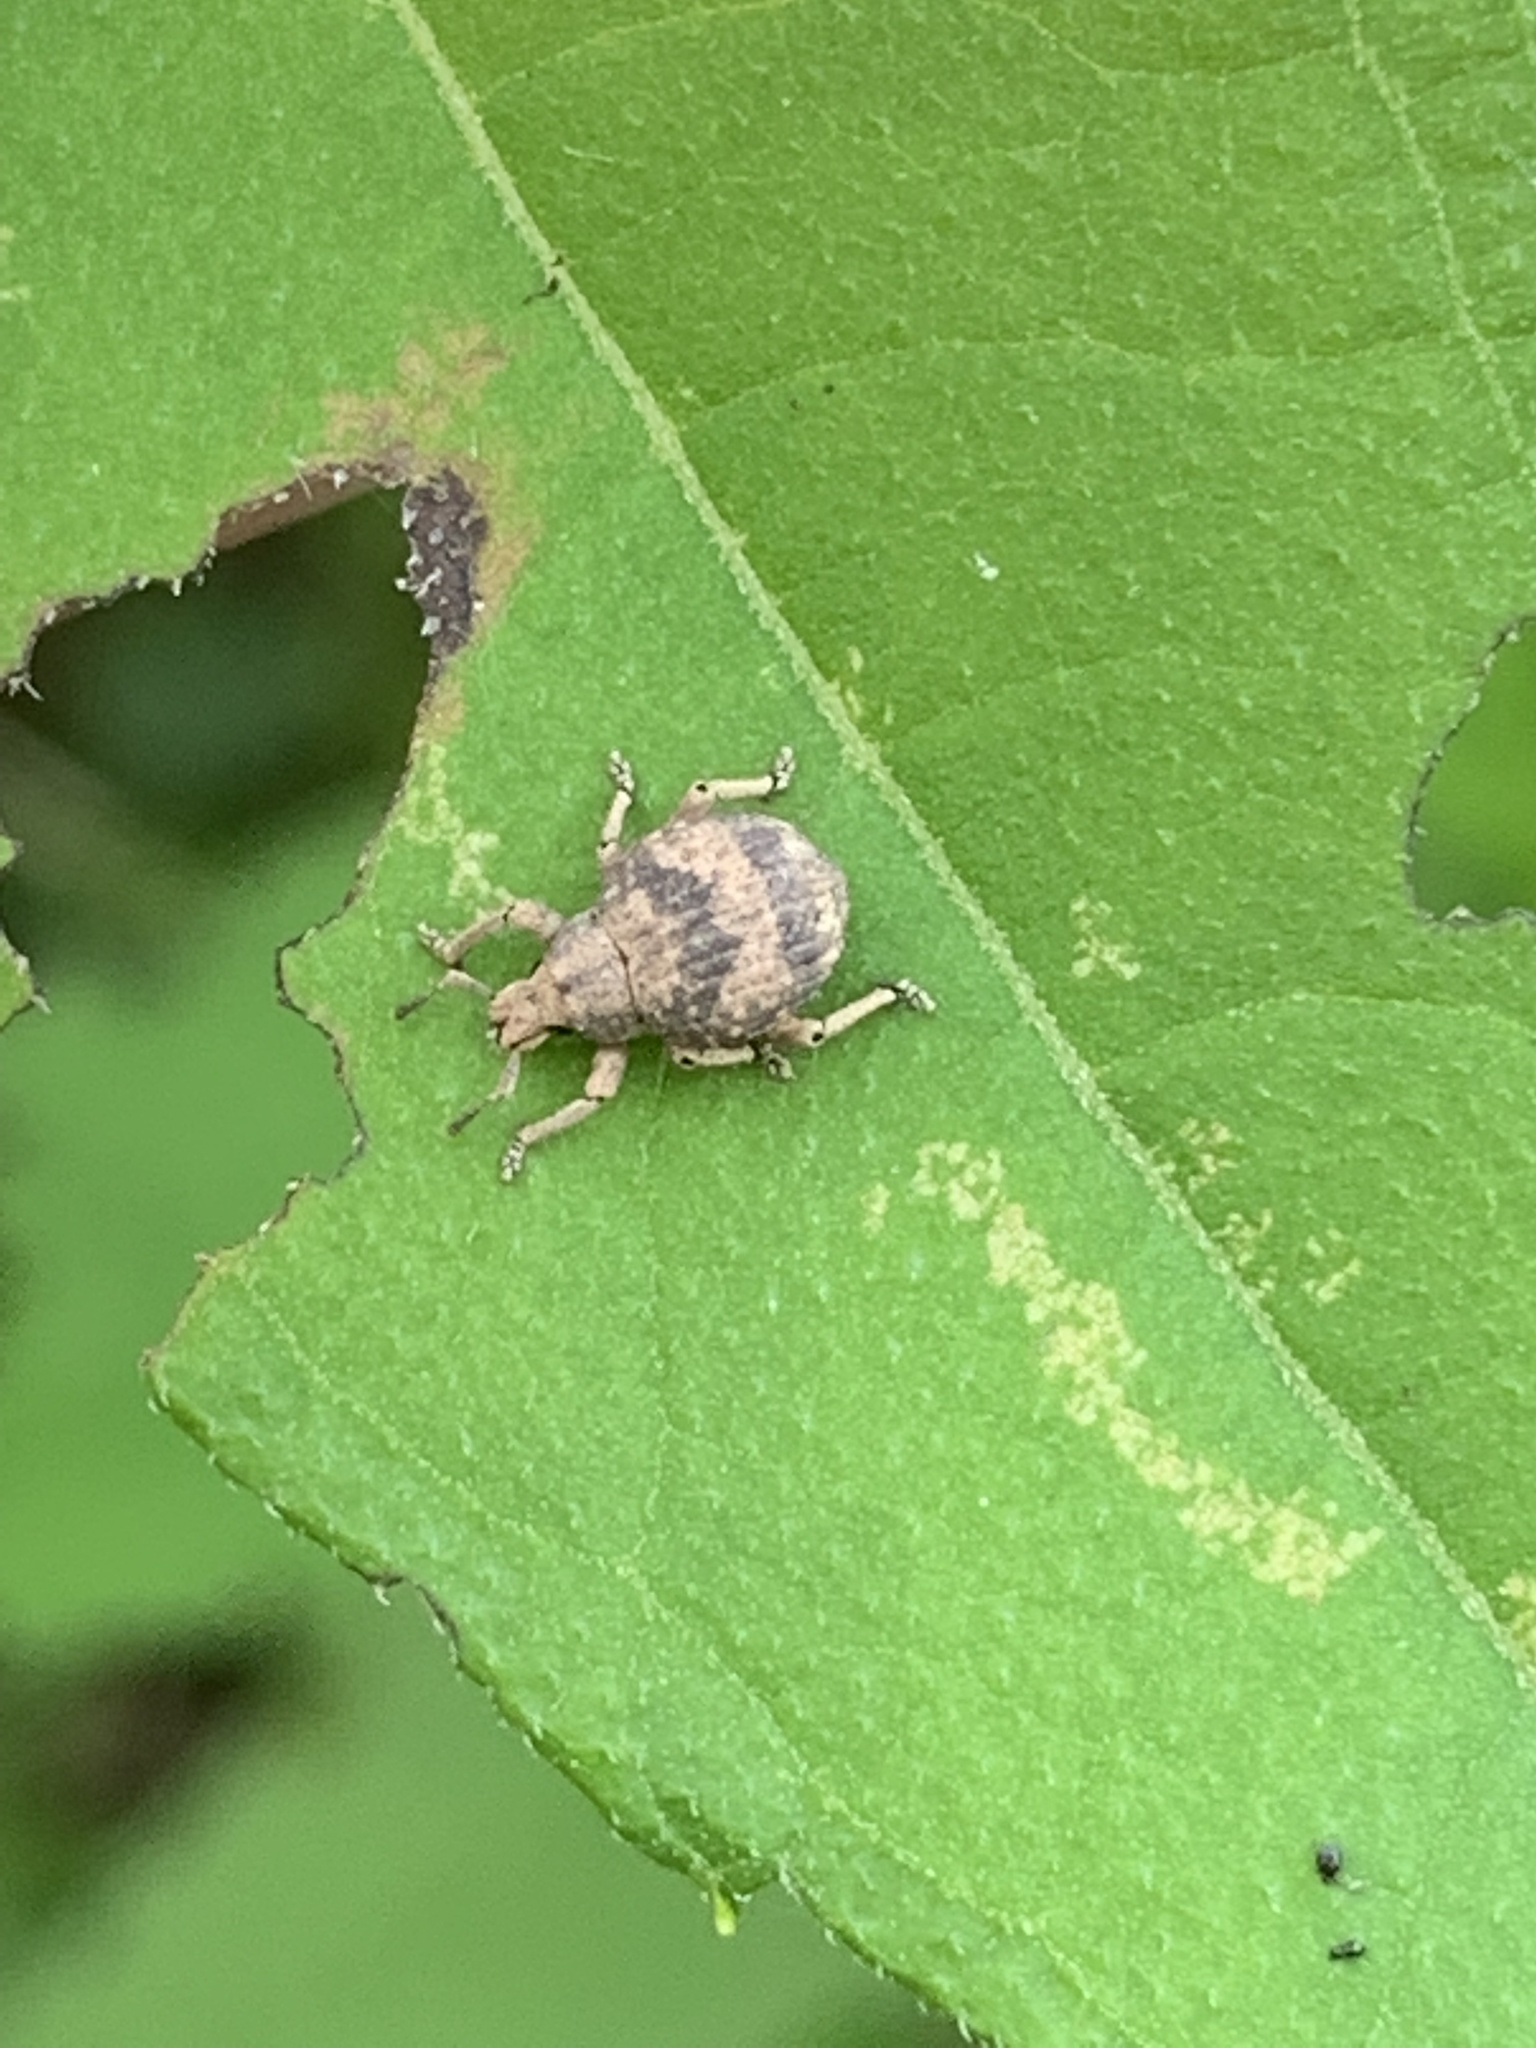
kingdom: Animalia
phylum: Arthropoda
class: Insecta
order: Coleoptera
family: Curculionidae
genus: Pseudocneorhinus
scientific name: Pseudocneorhinus bifasciatus
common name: Two-banded japanese weevil
